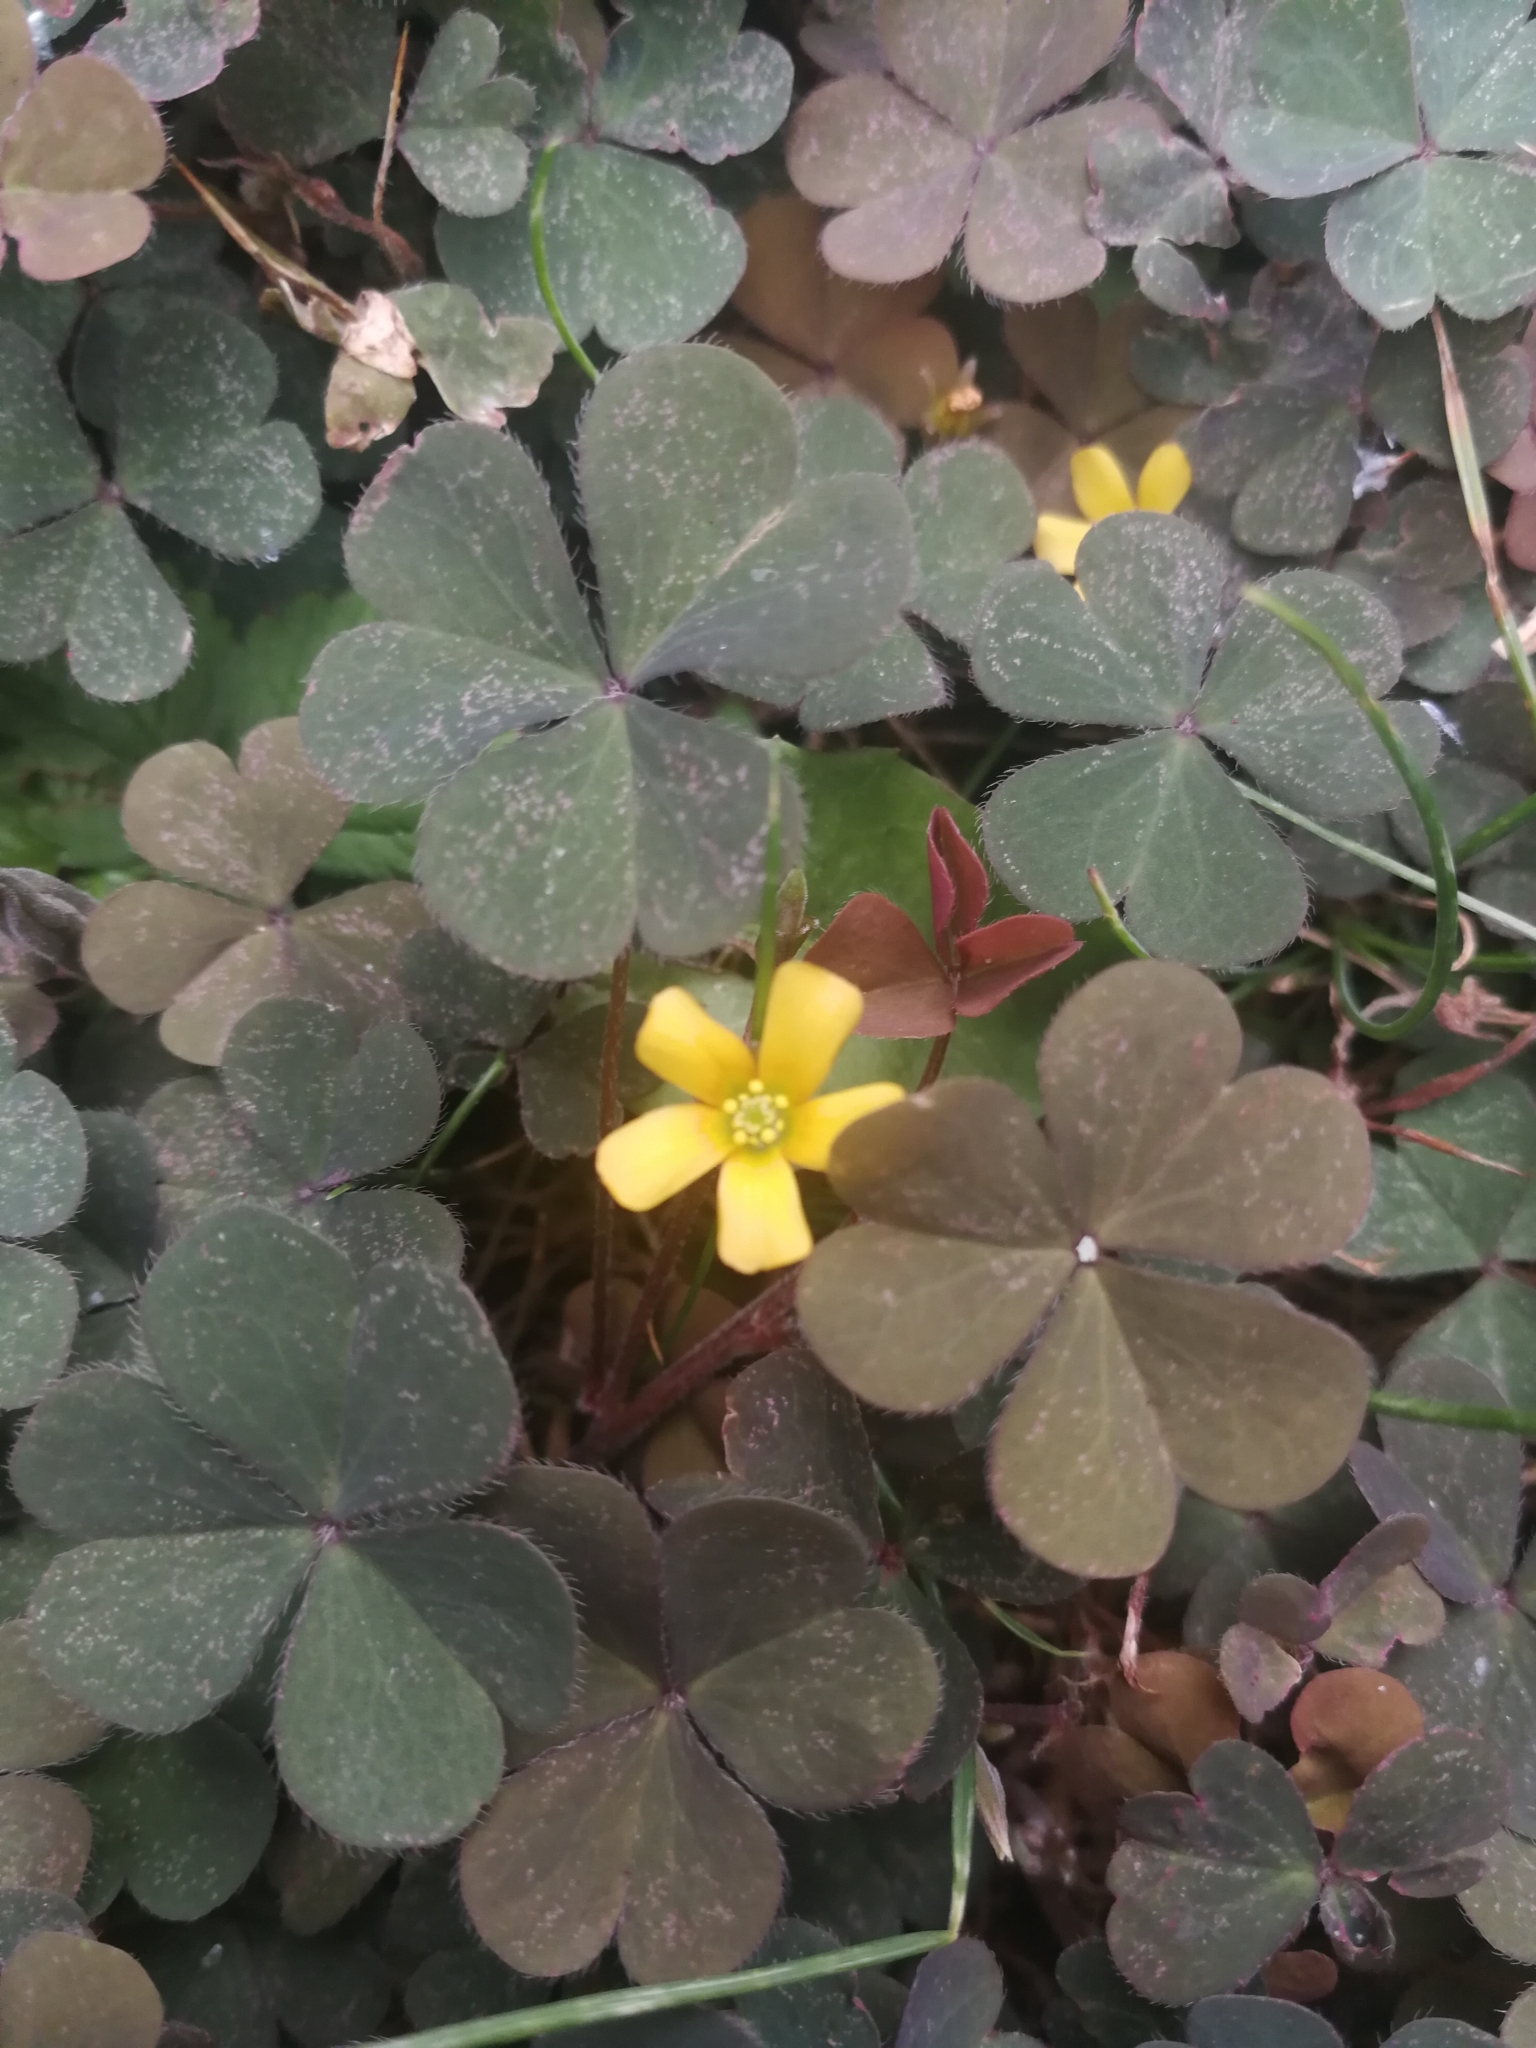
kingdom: Plantae
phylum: Tracheophyta
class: Magnoliopsida
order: Oxalidales
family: Oxalidaceae
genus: Oxalis
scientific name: Oxalis corniculata
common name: Procumbent yellow-sorrel
